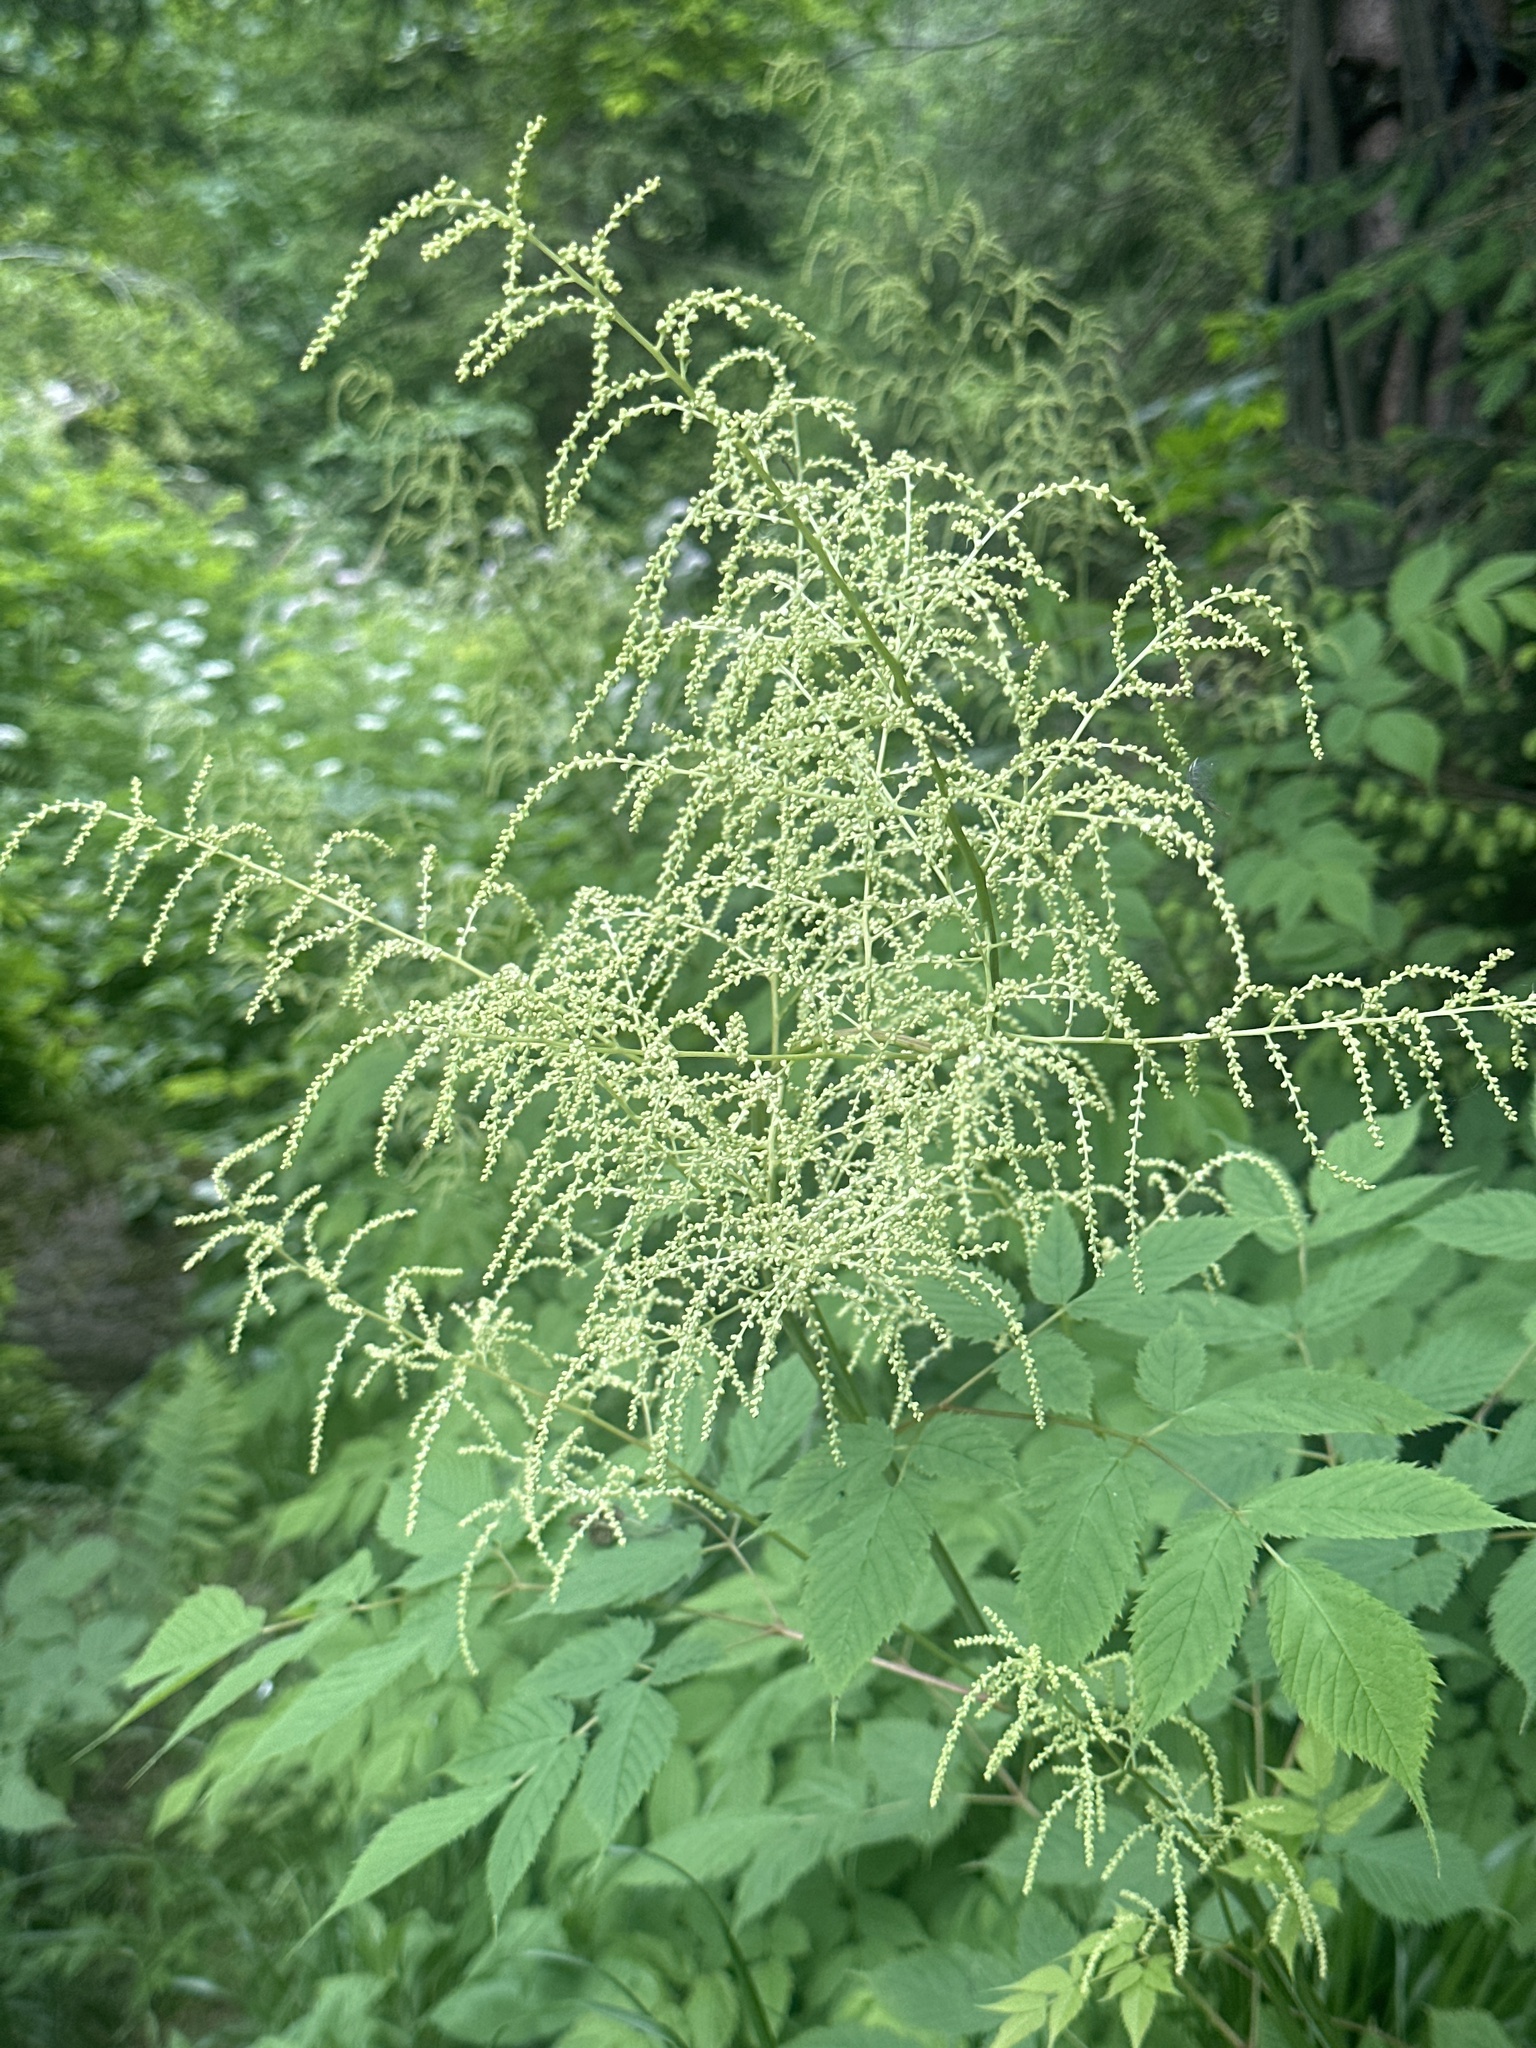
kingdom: Plantae
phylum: Tracheophyta
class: Magnoliopsida
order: Rosales
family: Rosaceae
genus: Aruncus
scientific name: Aruncus dioicus
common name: Buck's-beard
